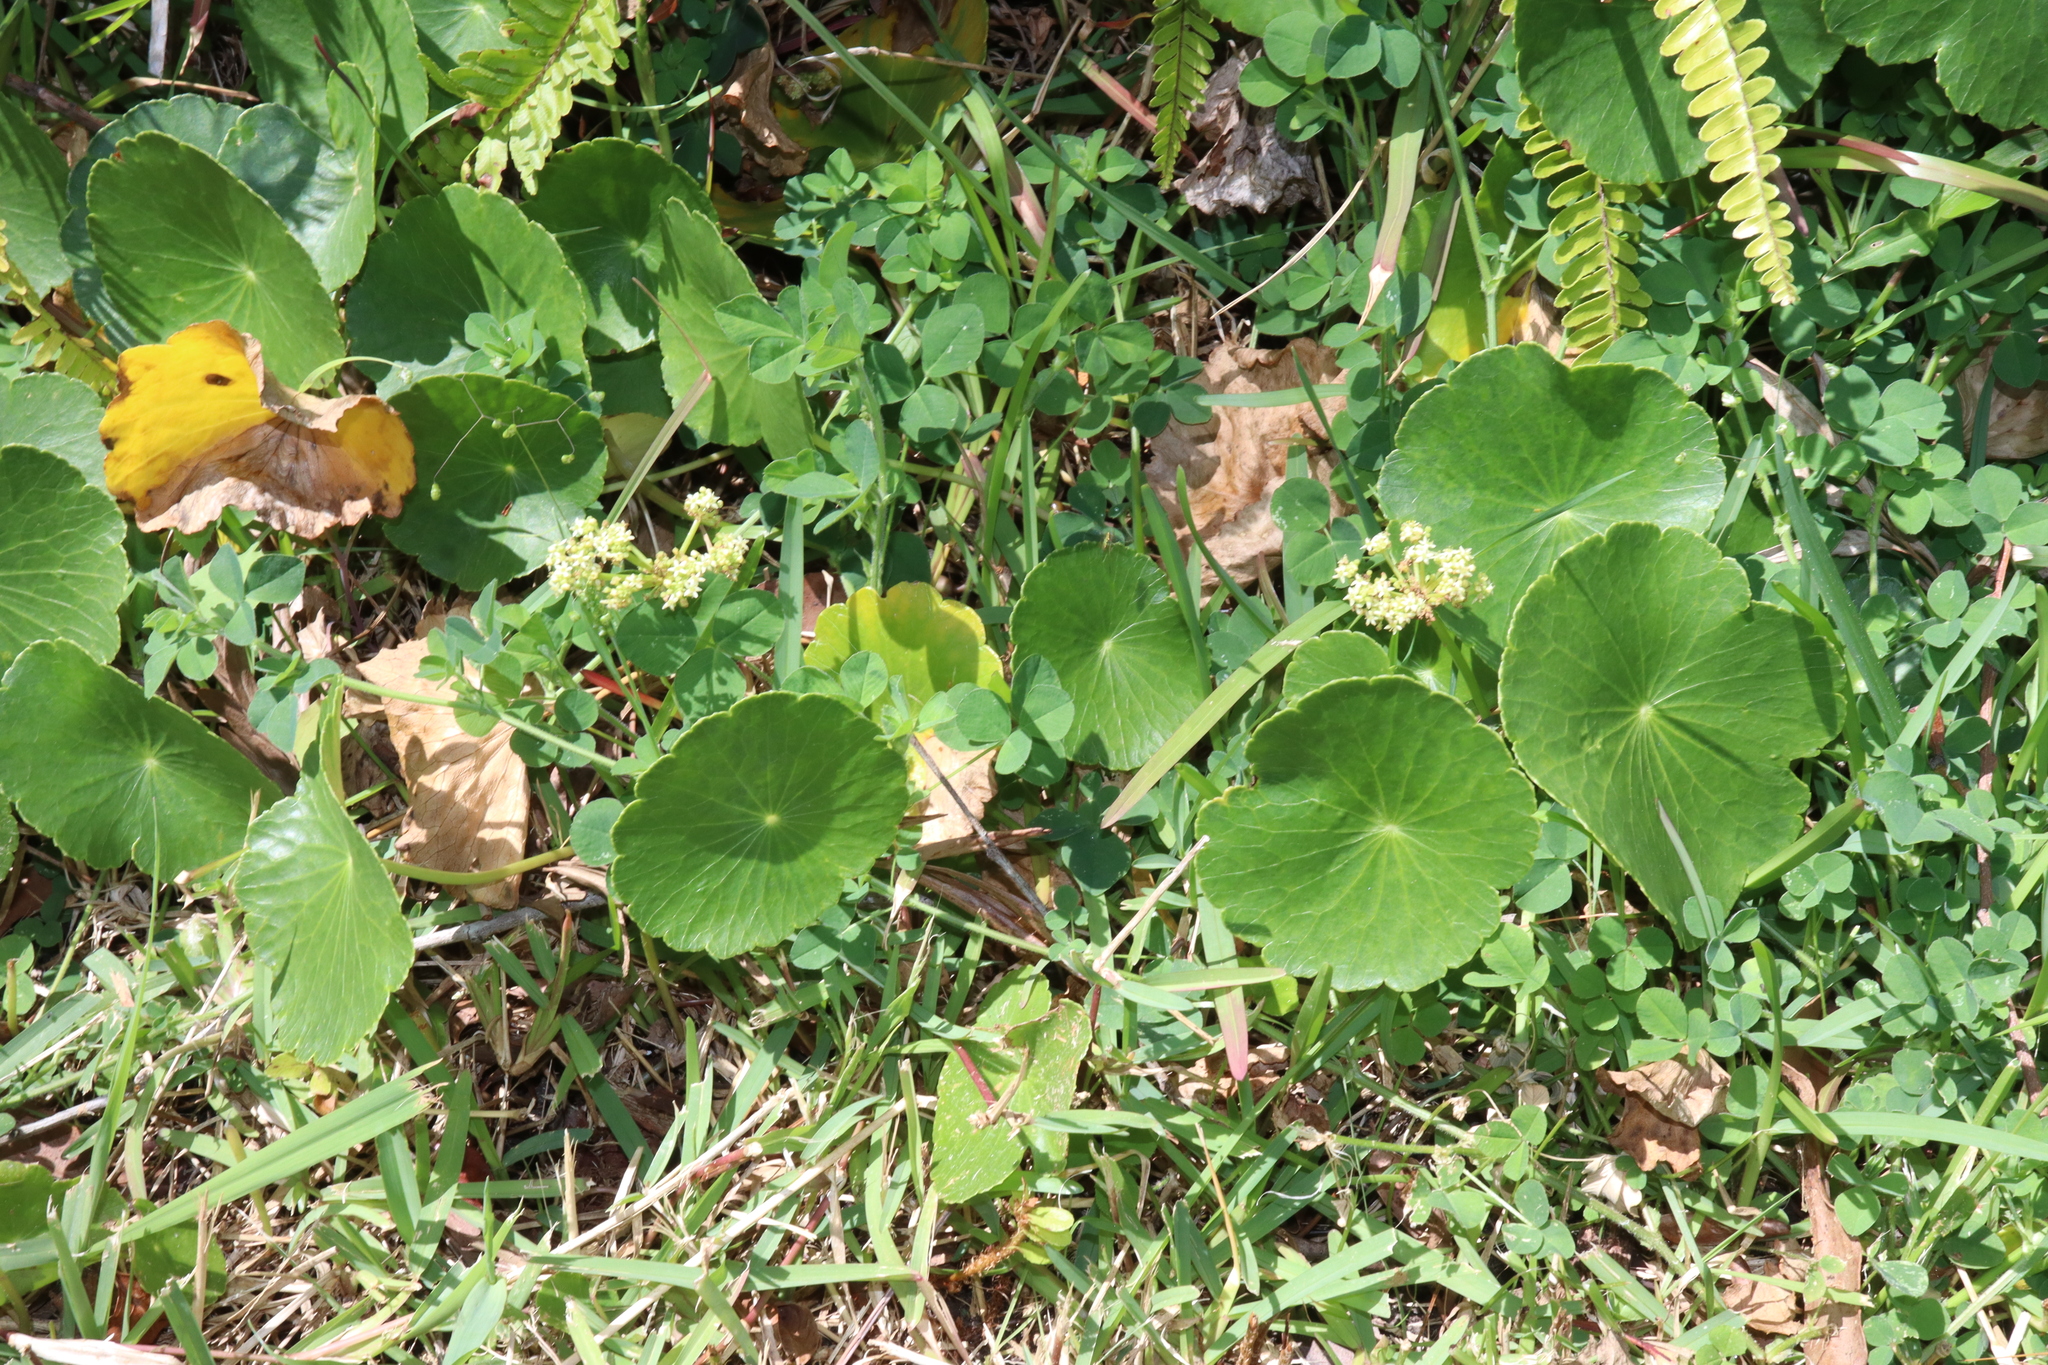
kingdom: Plantae
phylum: Tracheophyta
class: Magnoliopsida
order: Apiales
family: Araliaceae
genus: Hydrocotyle
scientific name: Hydrocotyle bonariensis
